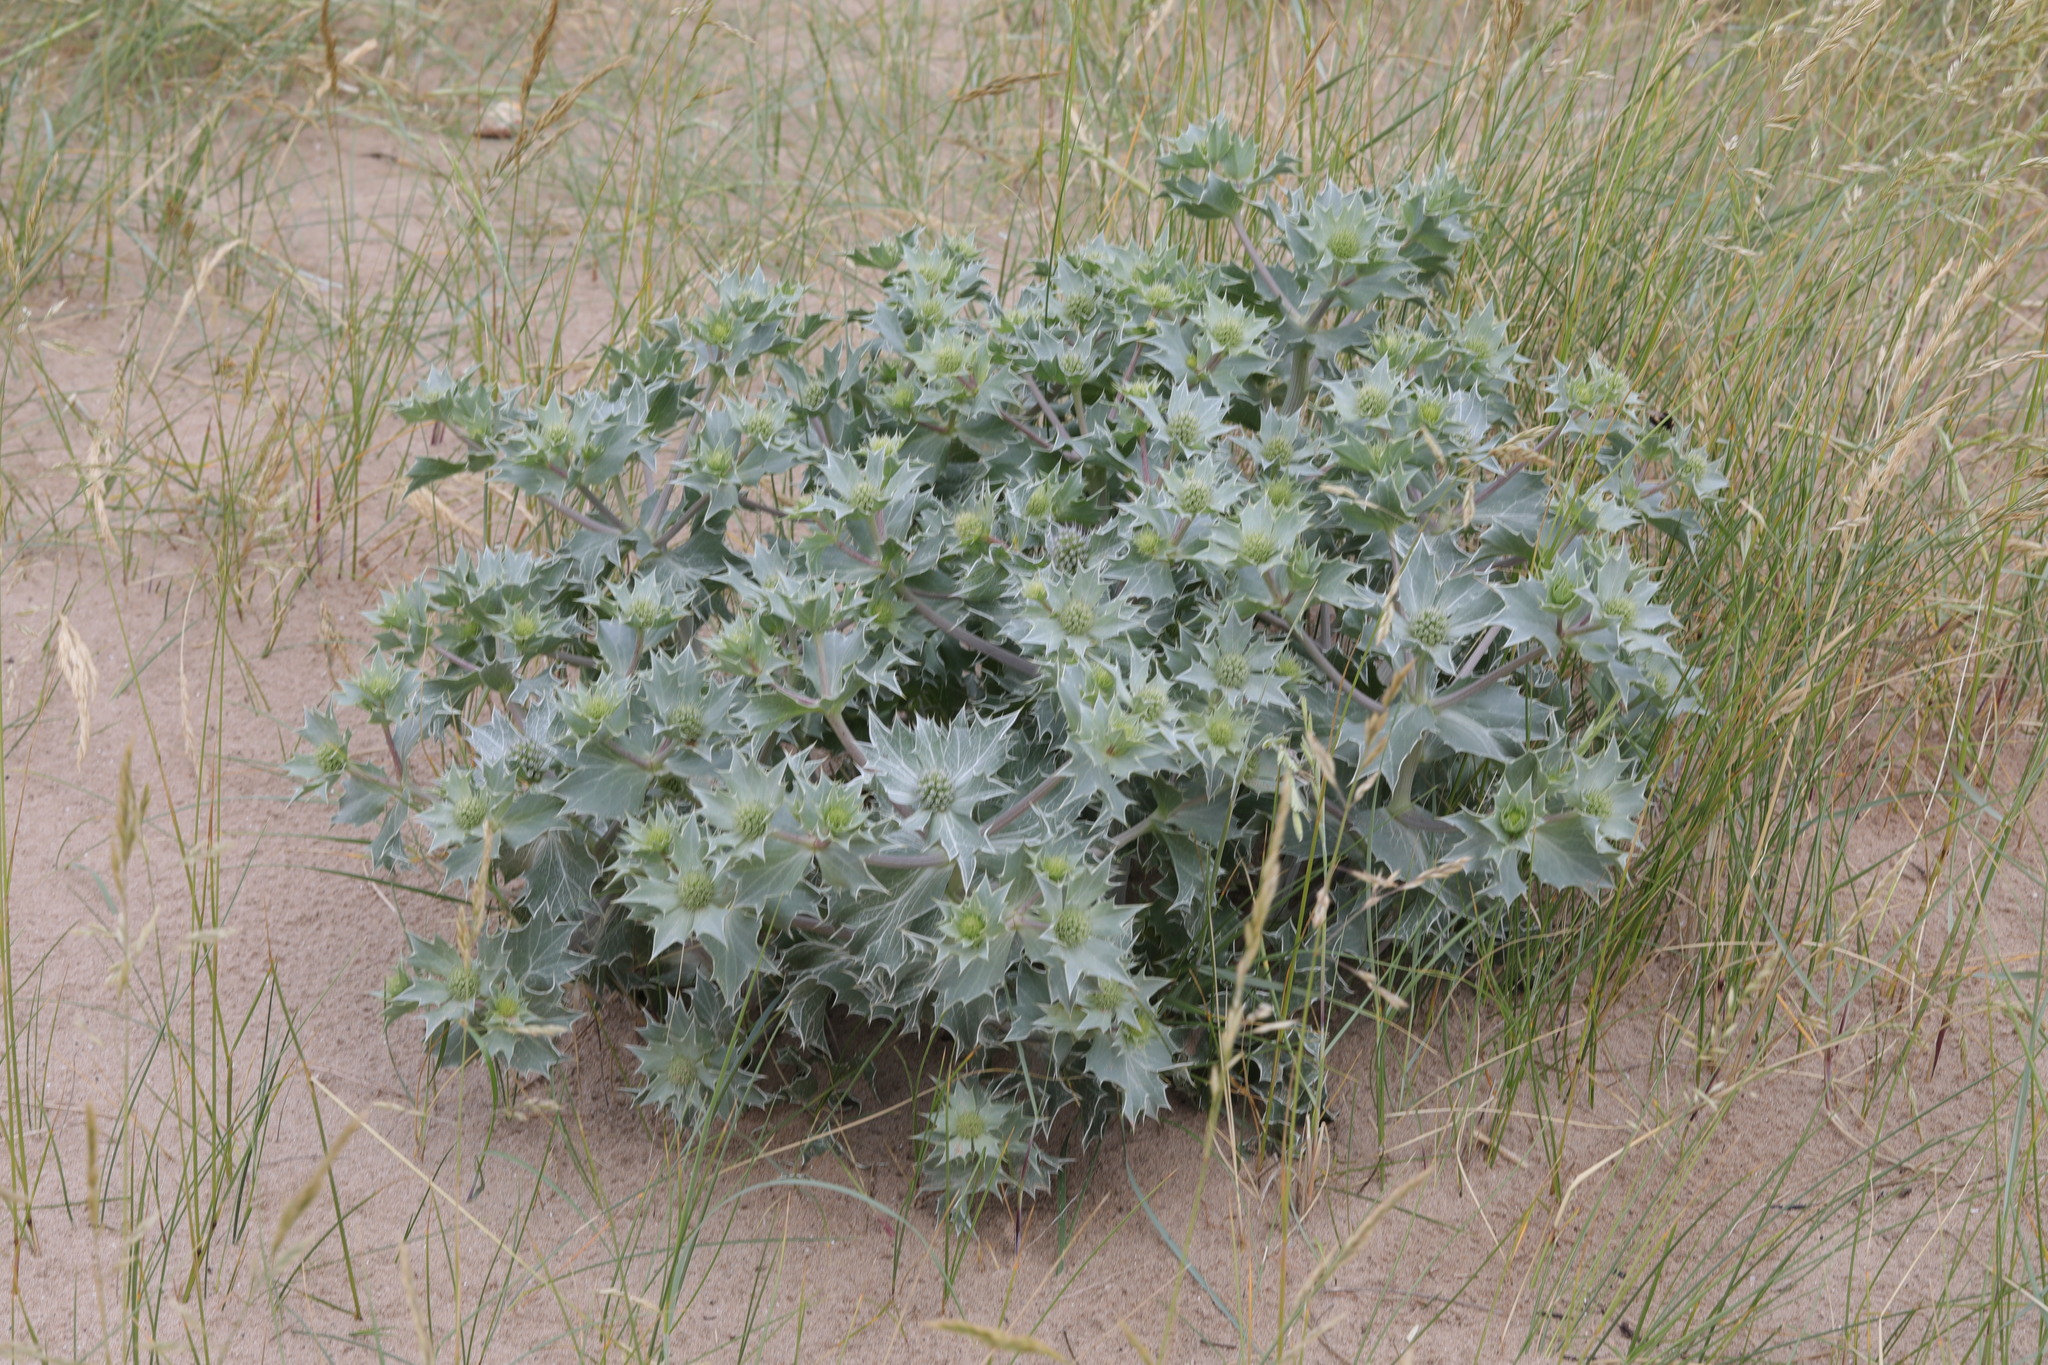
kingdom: Plantae
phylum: Tracheophyta
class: Magnoliopsida
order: Apiales
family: Apiaceae
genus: Eryngium
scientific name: Eryngium maritimum
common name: Sea-holly
